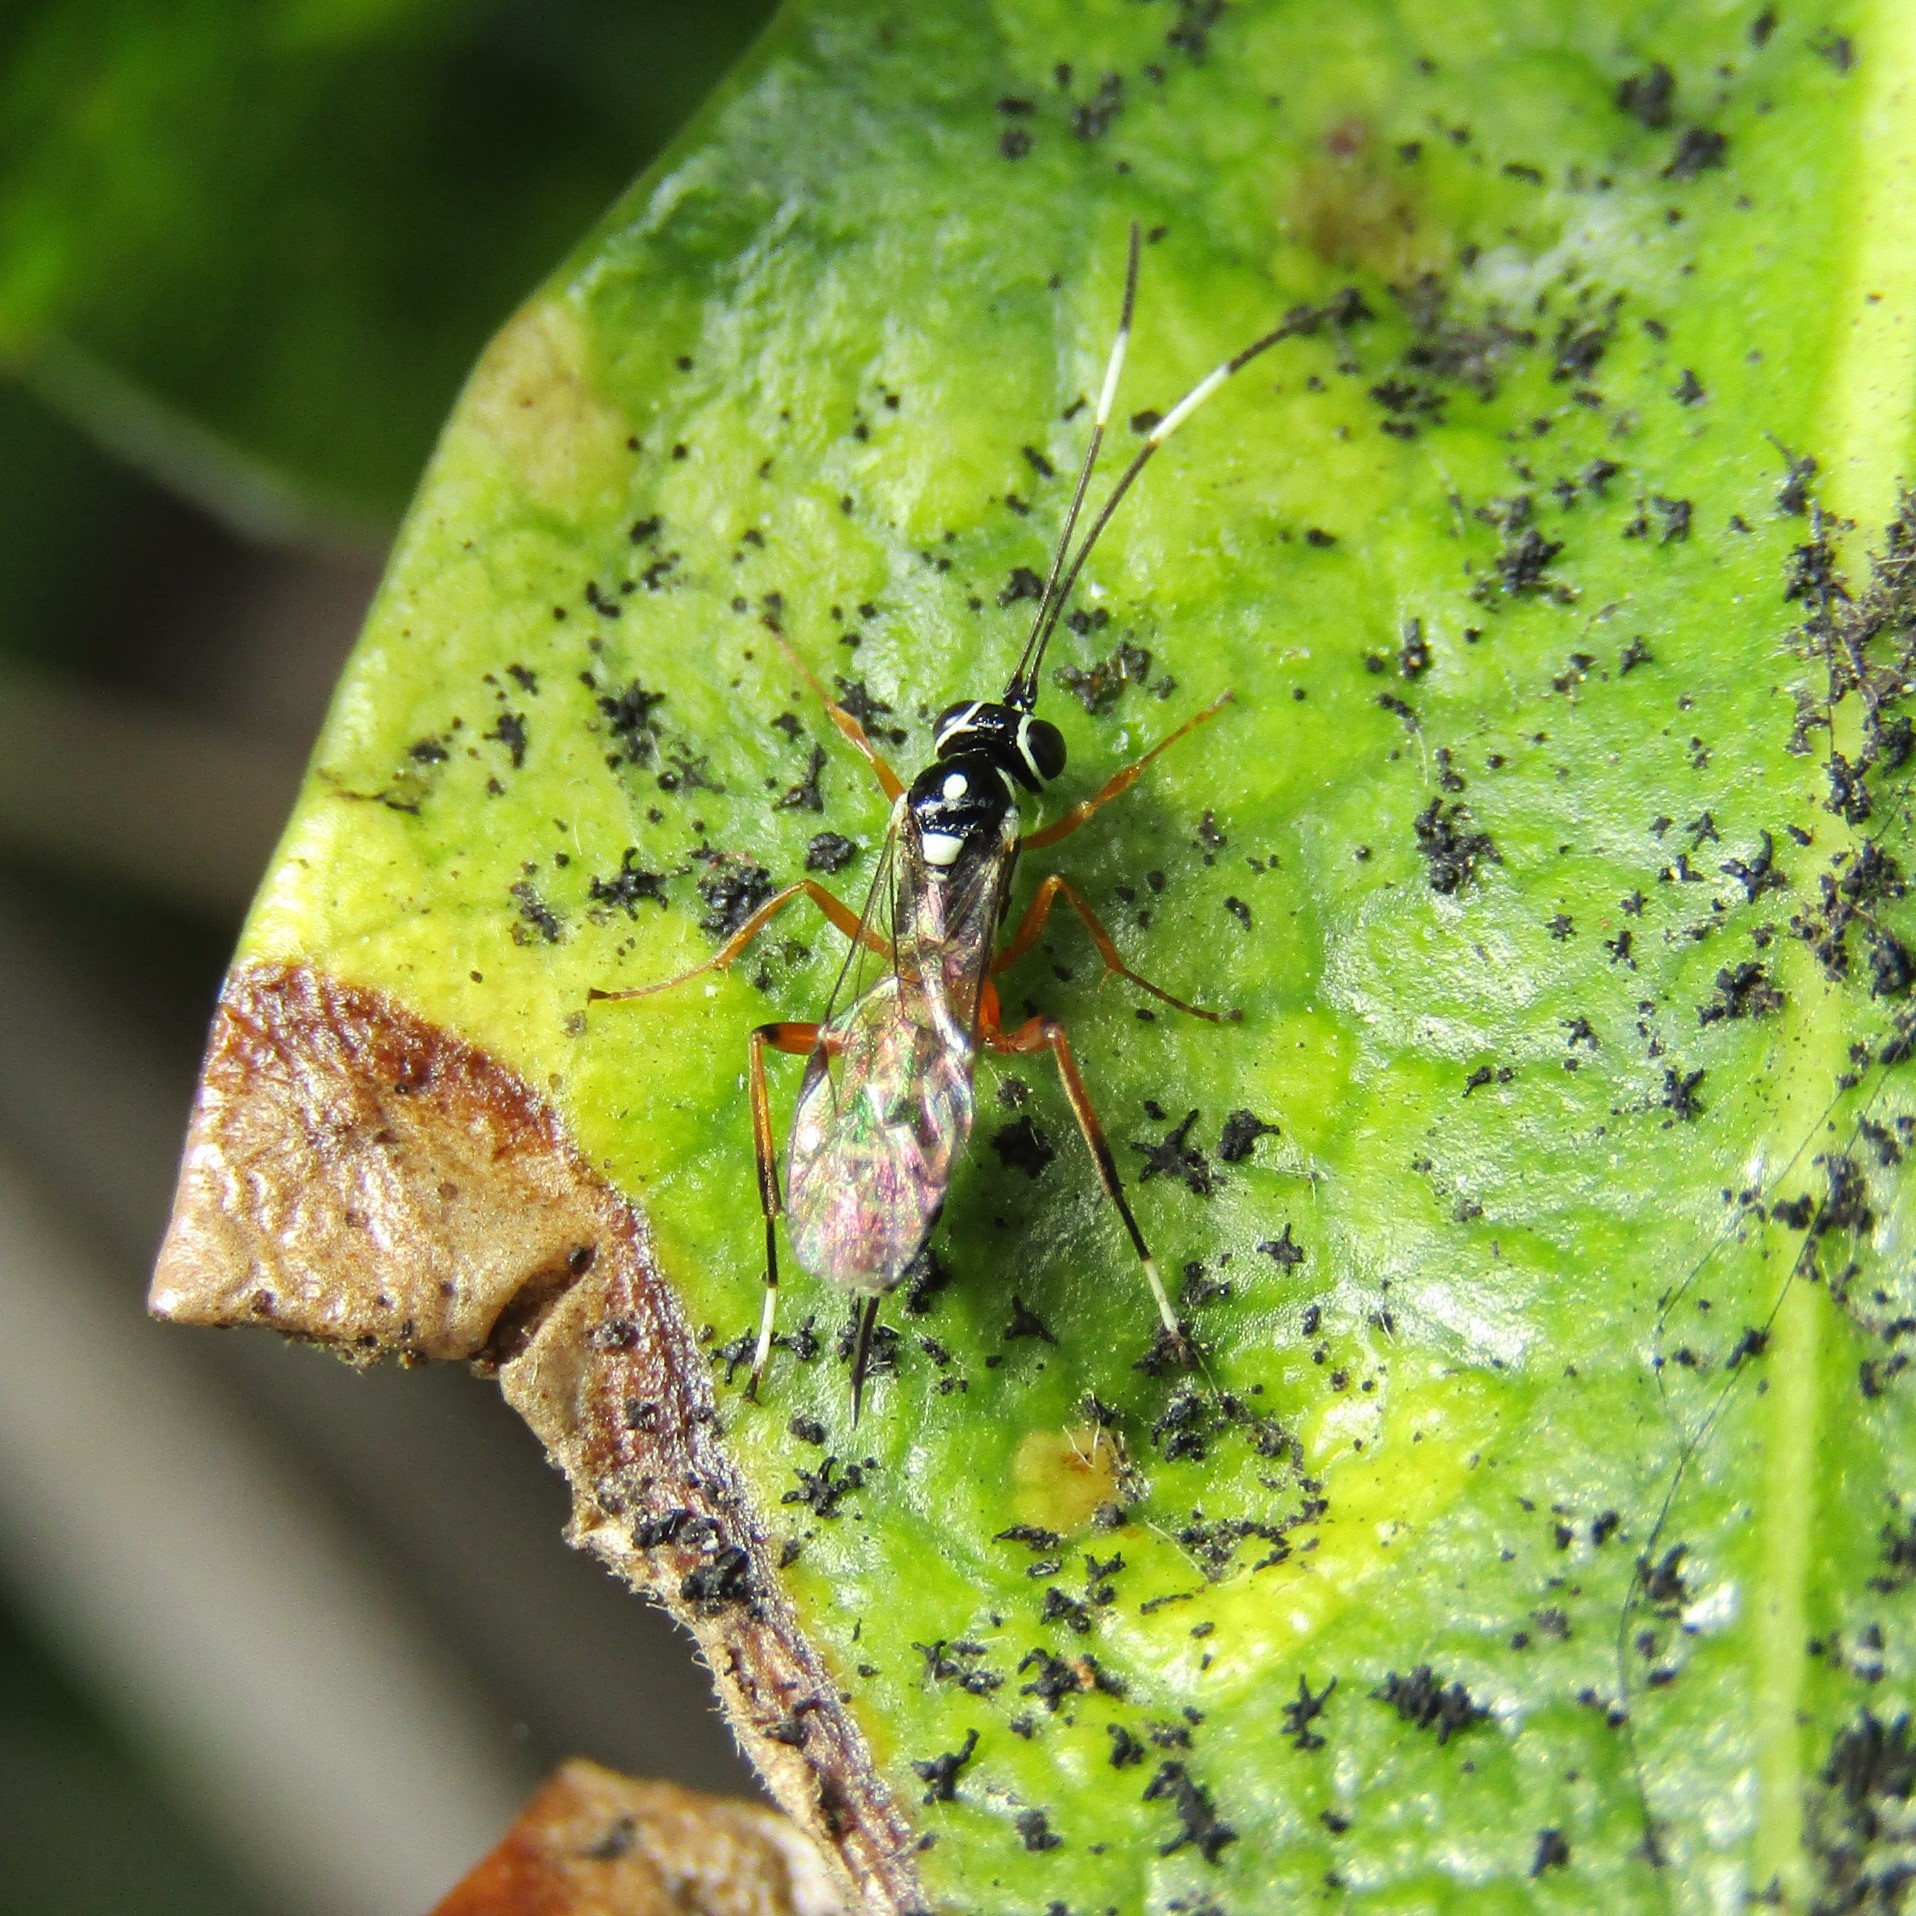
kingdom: Animalia
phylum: Arthropoda
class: Insecta
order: Hymenoptera
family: Ichneumonidae
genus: Glabridorsum
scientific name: Glabridorsum stokesii
